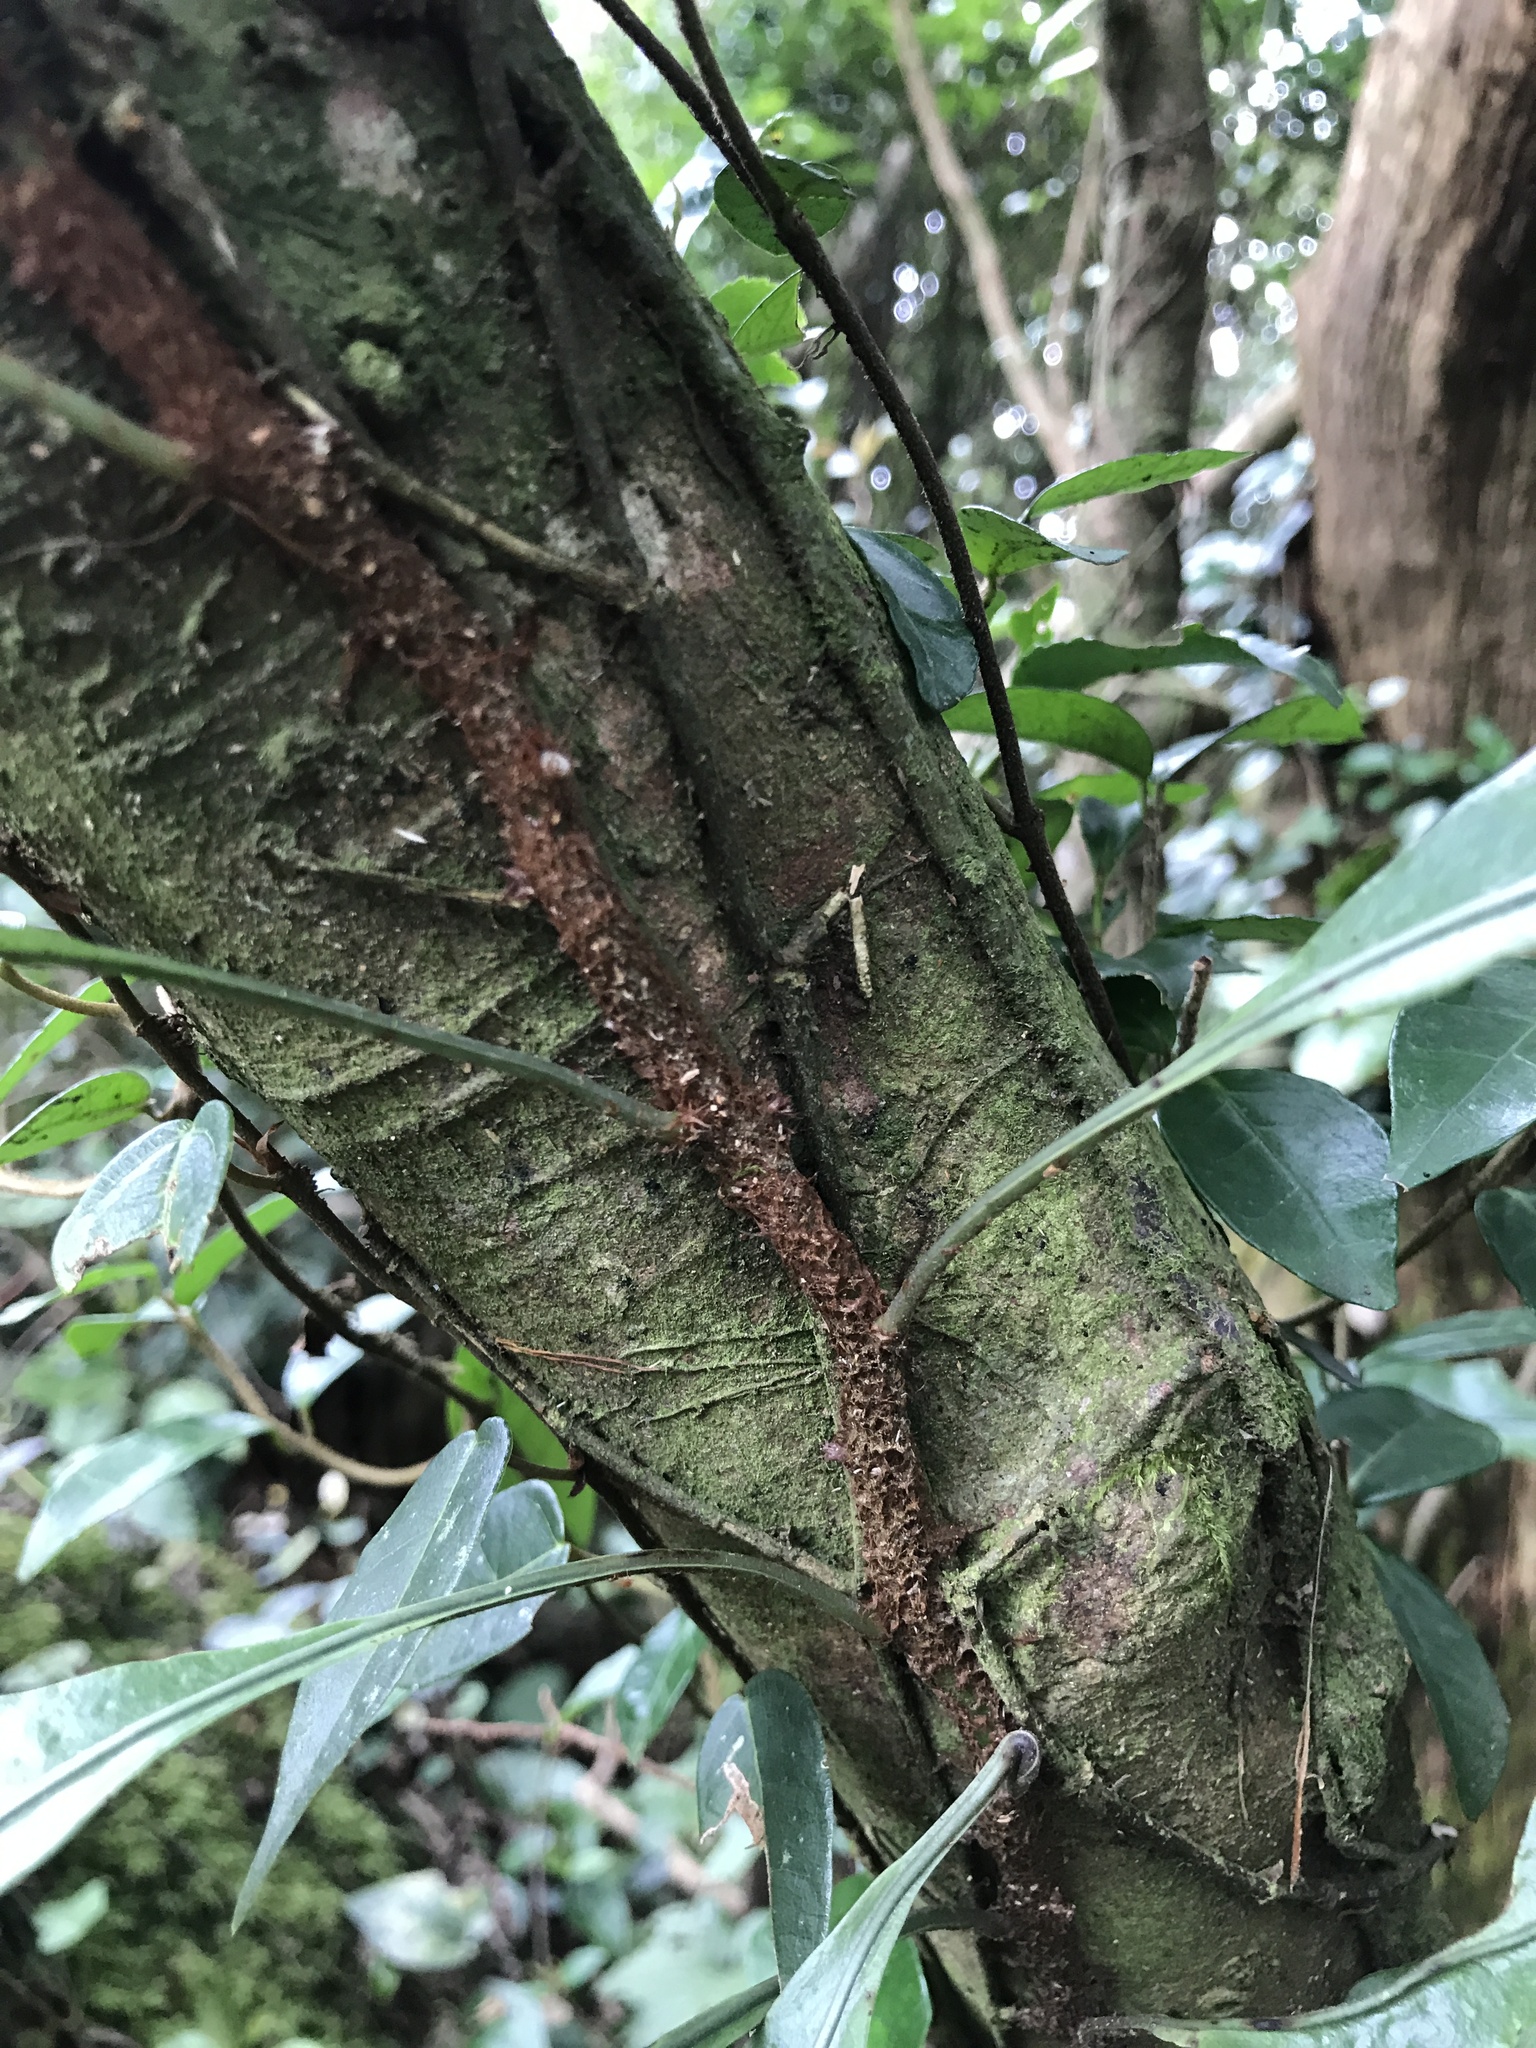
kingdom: Plantae
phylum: Tracheophyta
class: Polypodiopsida
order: Polypodiales
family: Polypodiaceae
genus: Lepisorus
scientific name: Lepisorus superficialis
